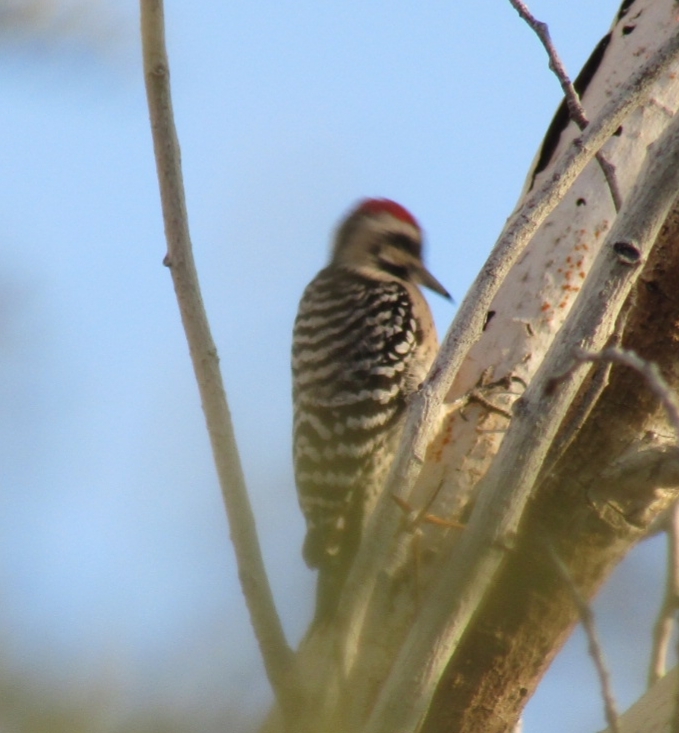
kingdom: Animalia
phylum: Chordata
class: Aves
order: Piciformes
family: Picidae
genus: Dryobates
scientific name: Dryobates scalaris
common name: Ladder-backed woodpecker
